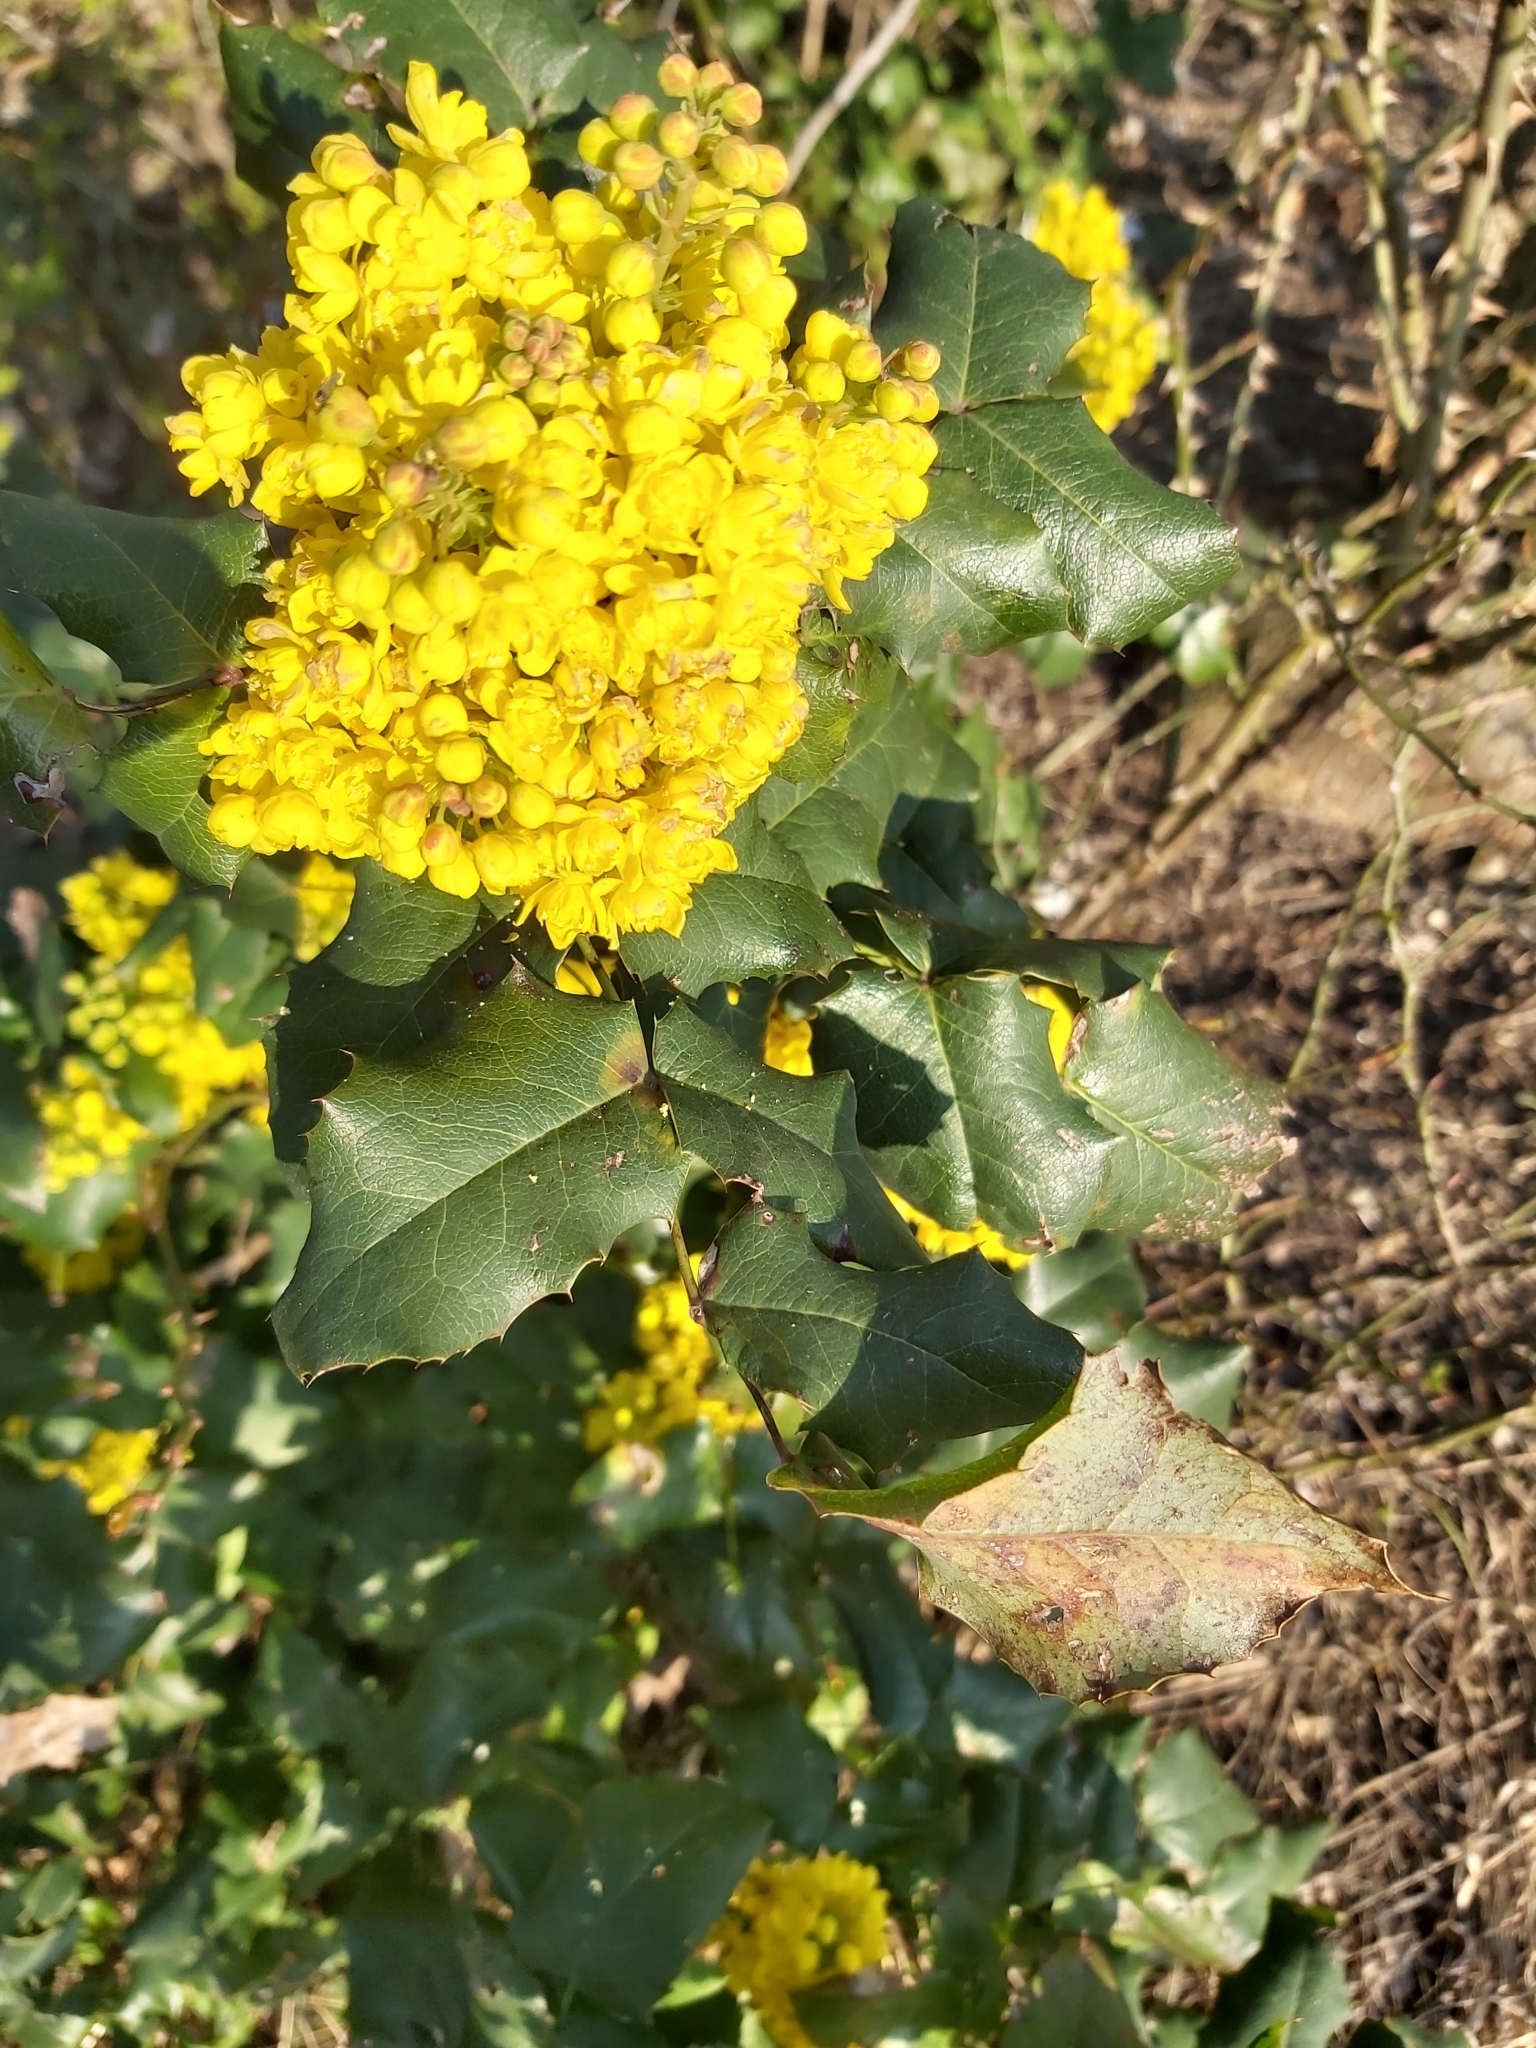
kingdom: Plantae
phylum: Tracheophyta
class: Magnoliopsida
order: Ranunculales
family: Berberidaceae
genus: Mahonia
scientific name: Mahonia aquifolium
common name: Oregon-grape
